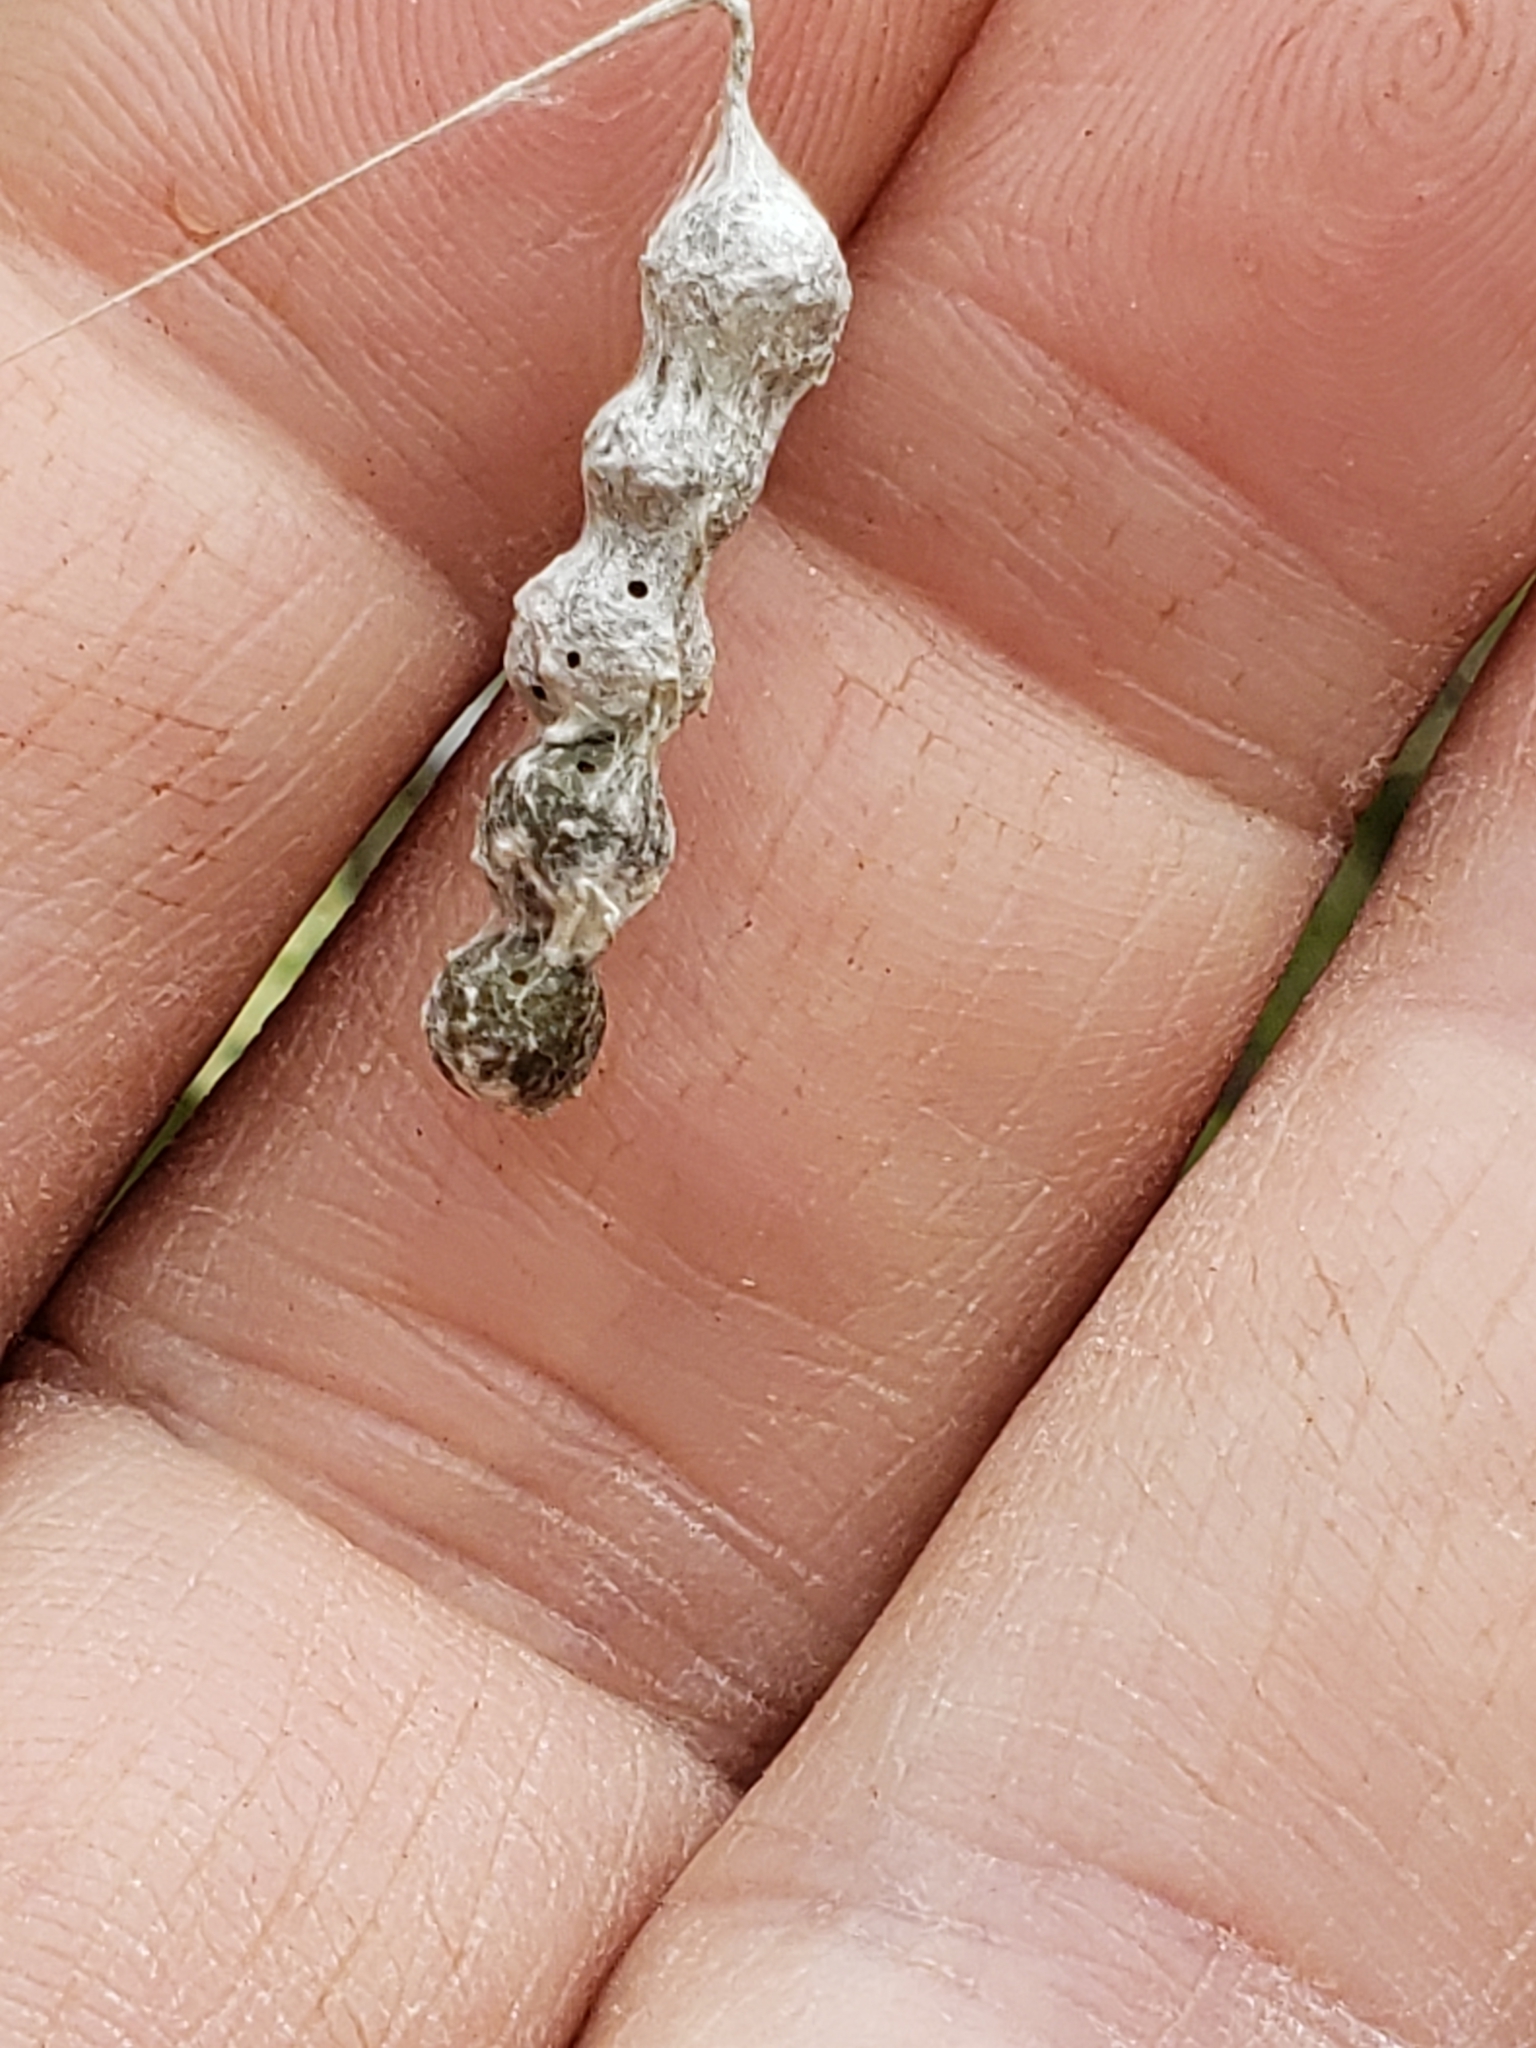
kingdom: Animalia
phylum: Arthropoda
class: Arachnida
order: Araneae
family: Araneidae
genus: Mecynogea
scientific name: Mecynogea lemniscata
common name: Orb weavers
